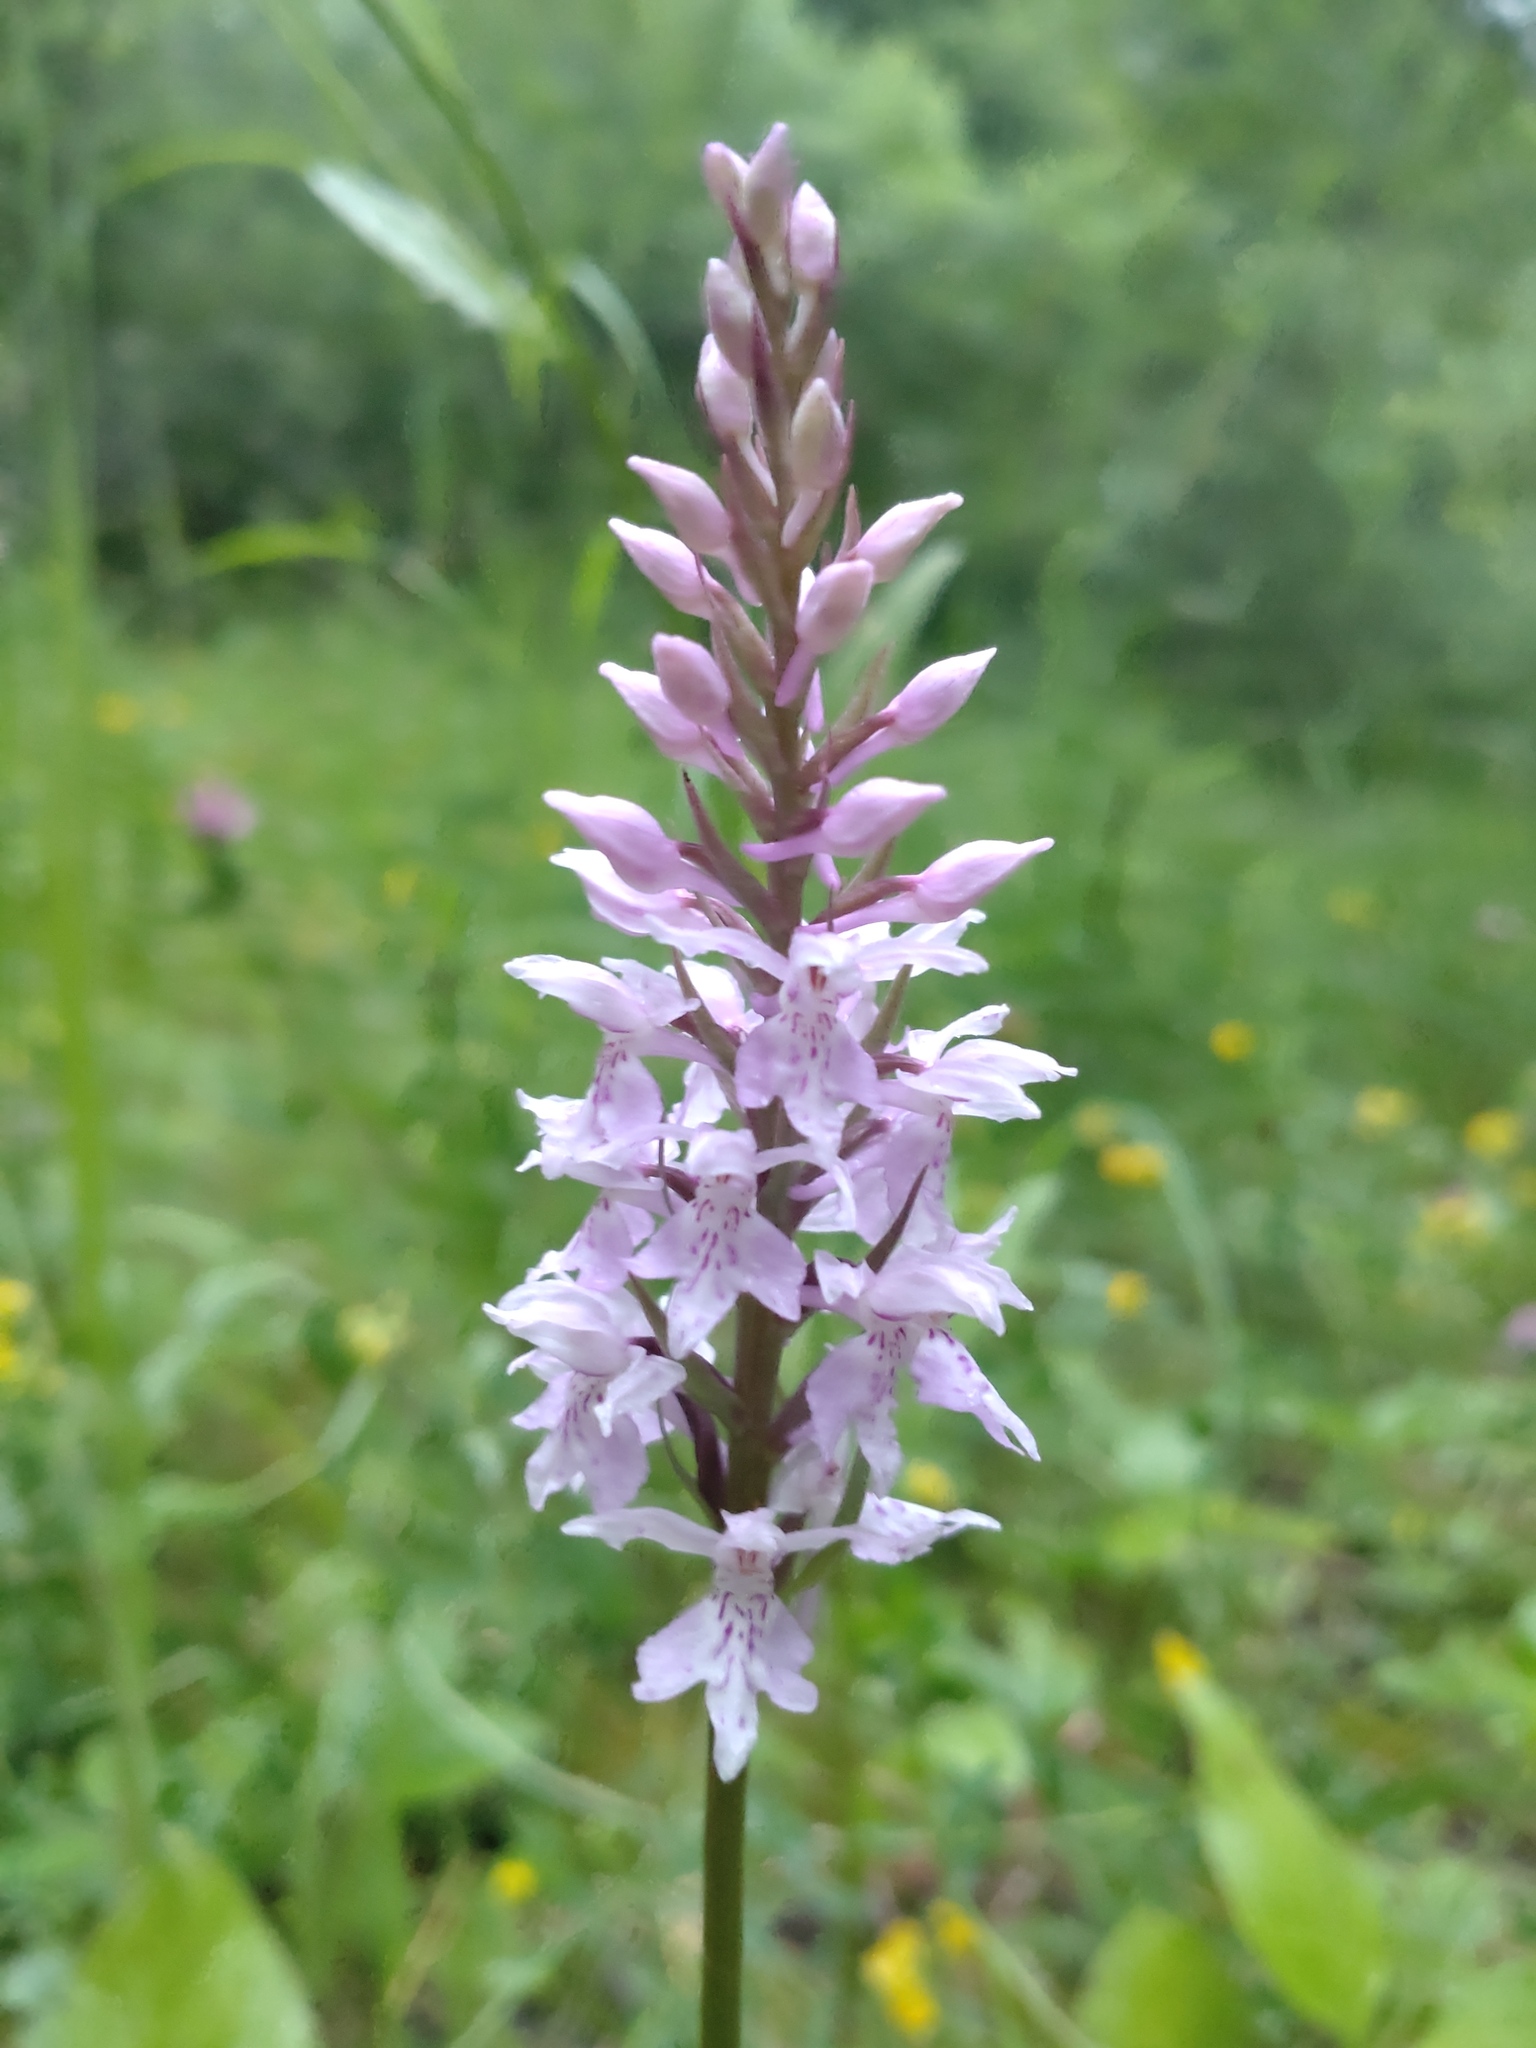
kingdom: Plantae
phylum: Tracheophyta
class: Liliopsida
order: Asparagales
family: Orchidaceae
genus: Dactylorhiza
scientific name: Dactylorhiza maculata
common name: Heath spotted-orchid
